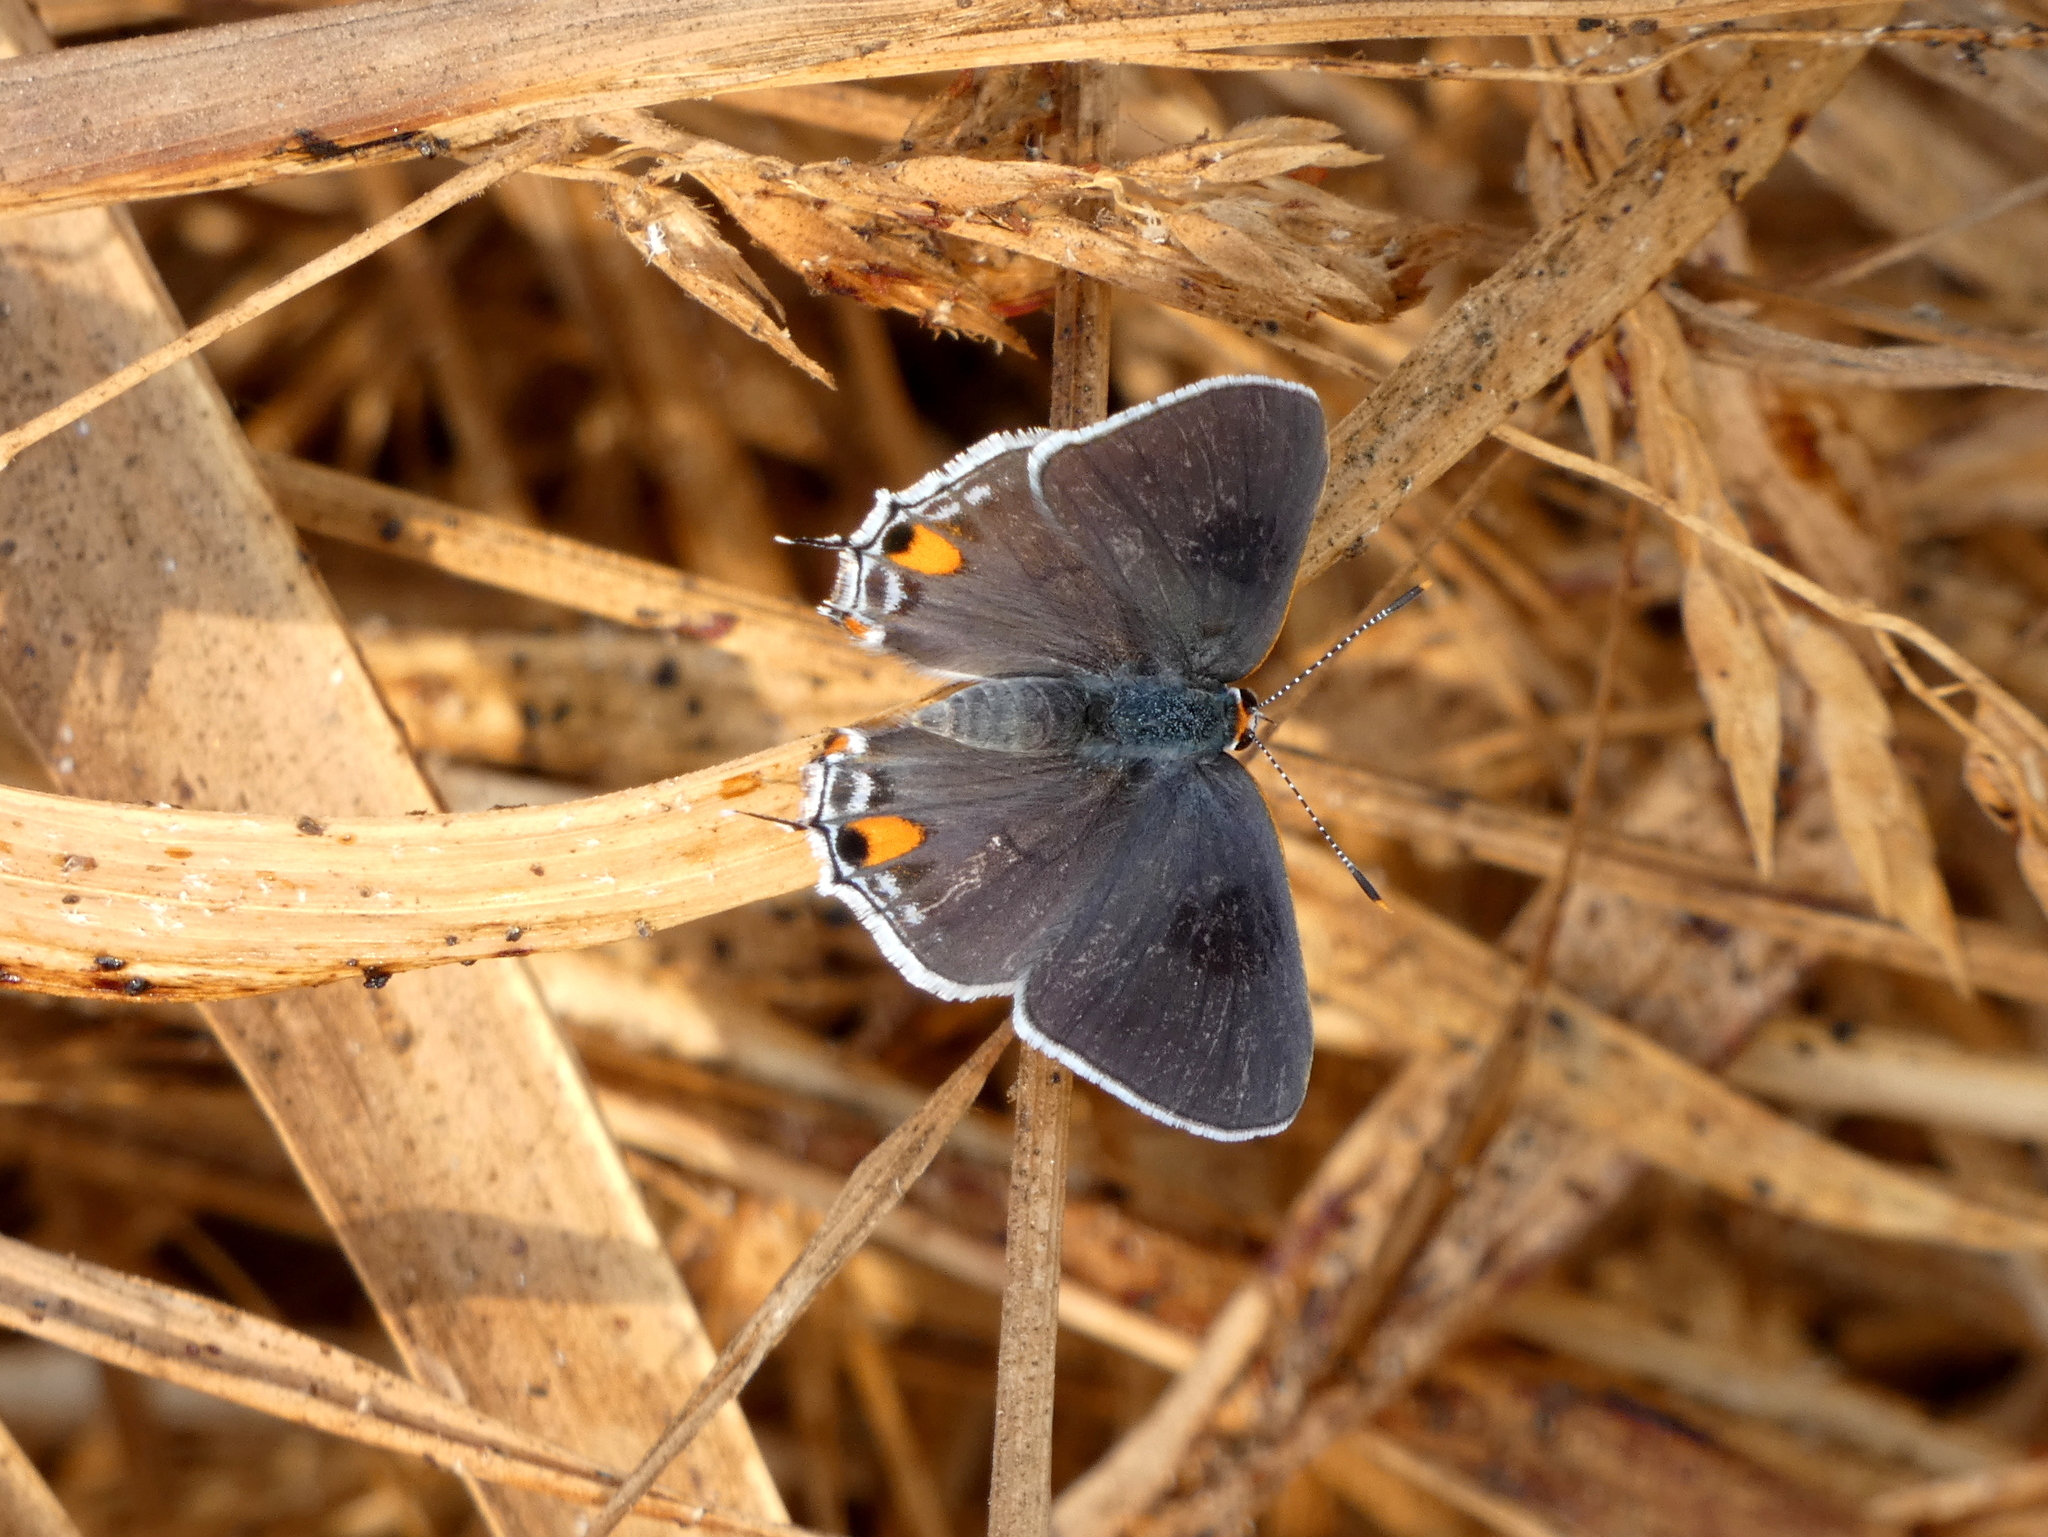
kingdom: Animalia
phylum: Arthropoda
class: Insecta
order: Lepidoptera
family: Lycaenidae
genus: Strymon
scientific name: Strymon melinus
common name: Gray hairstreak
